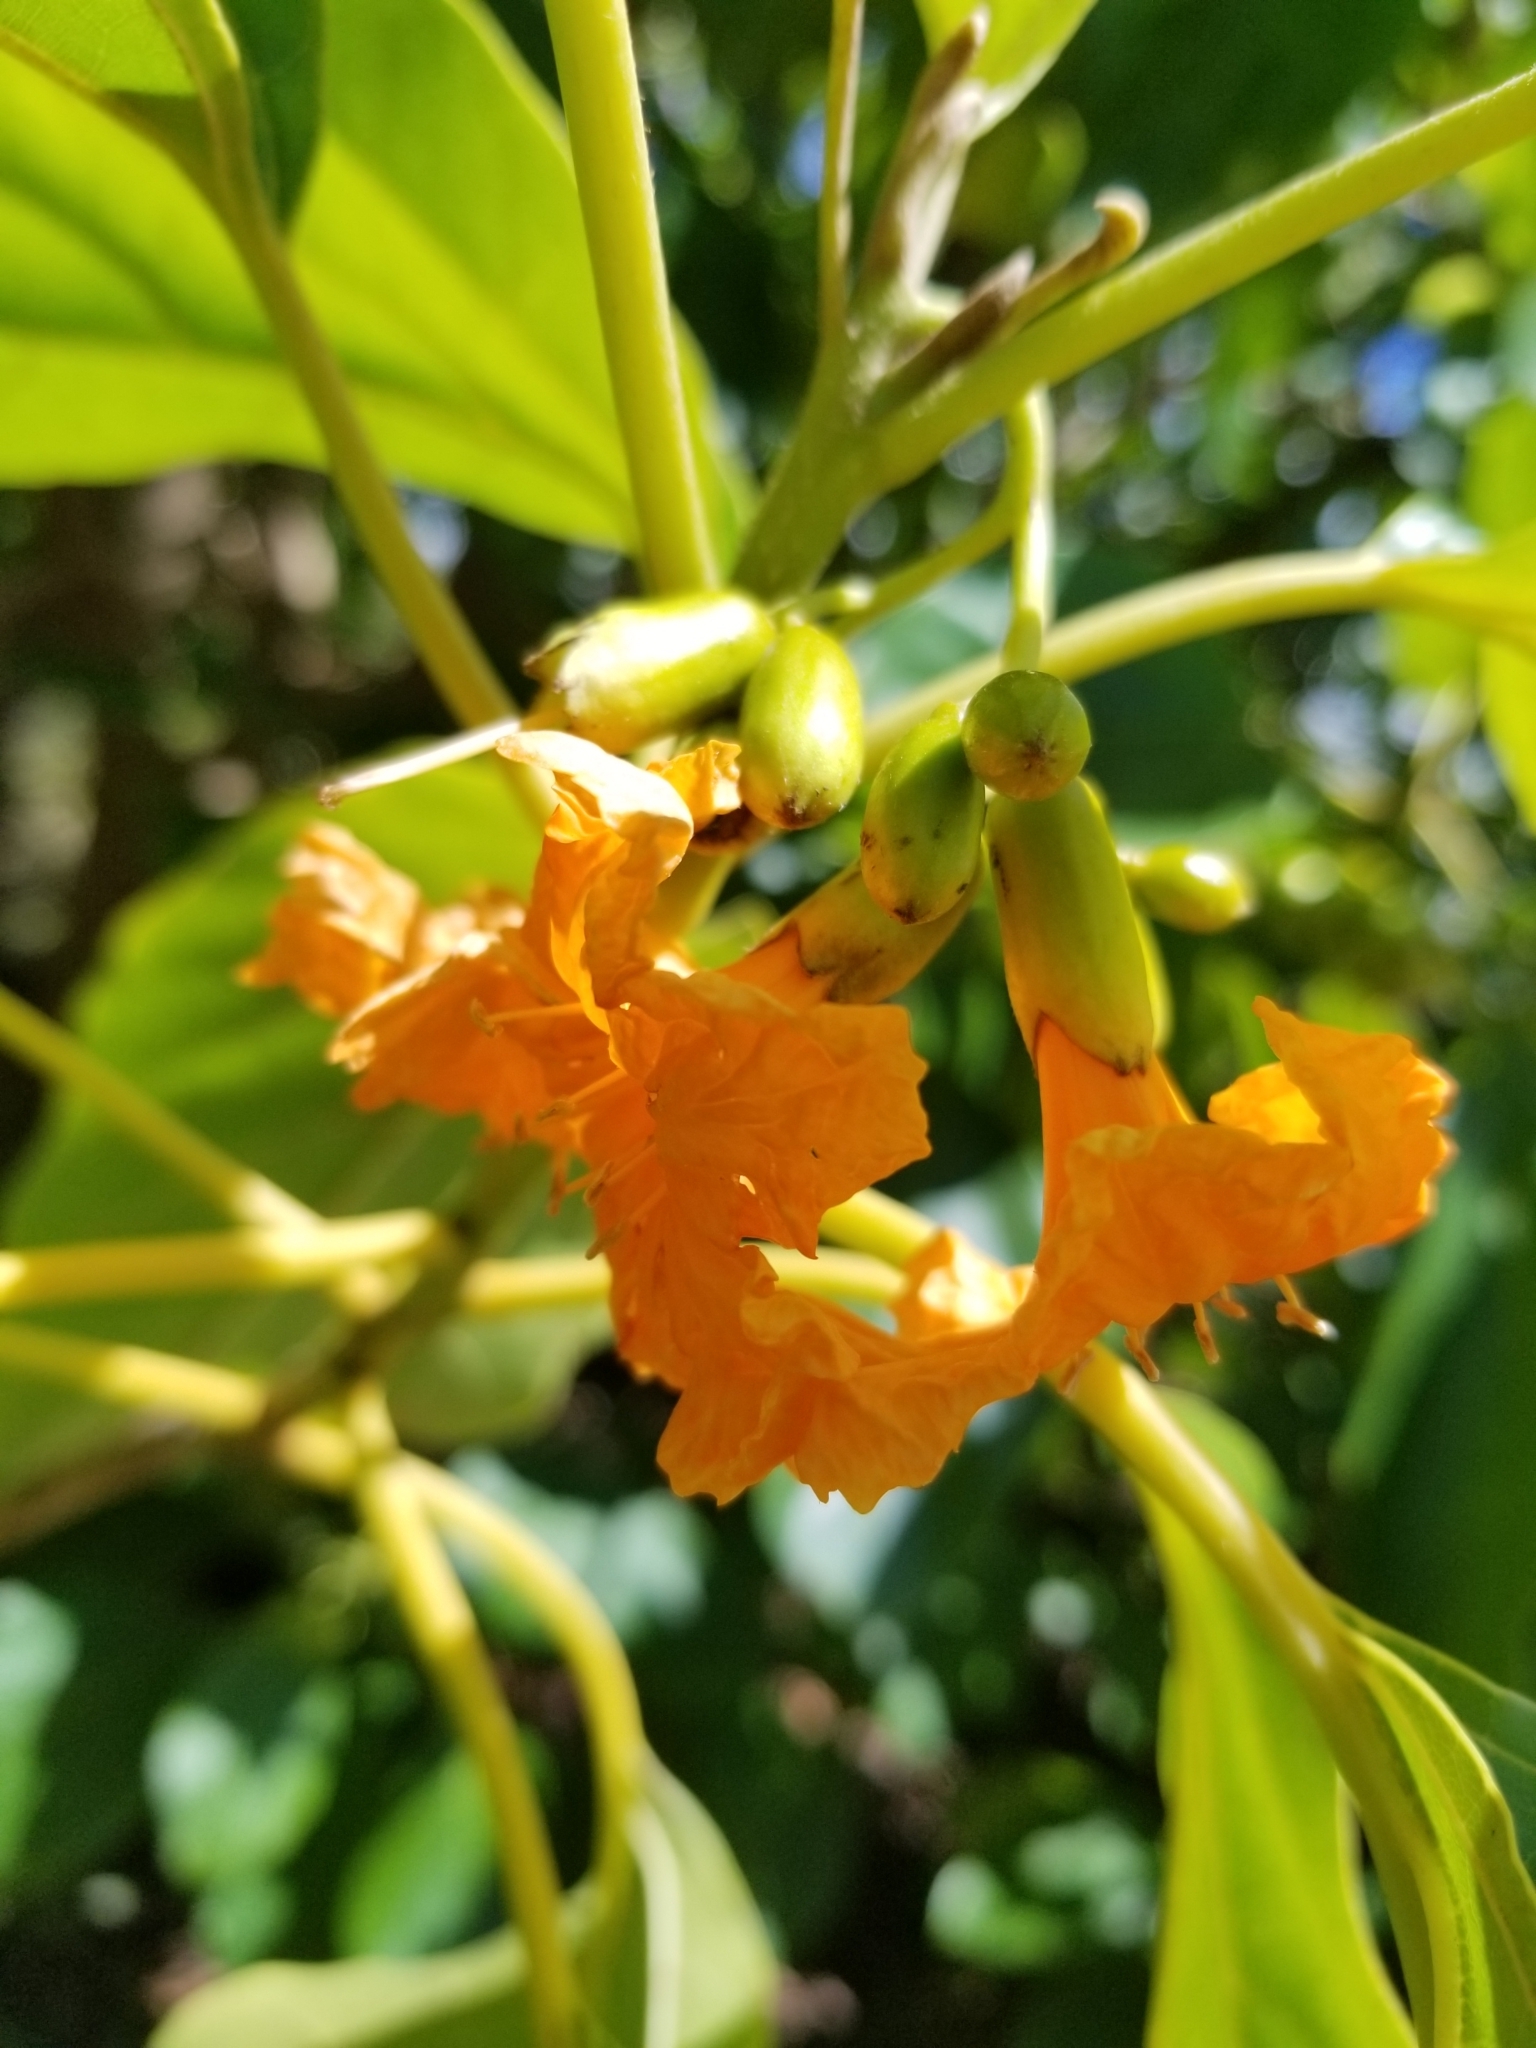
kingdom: Plantae
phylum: Tracheophyta
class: Magnoliopsida
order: Boraginales
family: Cordiaceae
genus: Cordia
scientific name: Cordia subcordata
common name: Mareer
